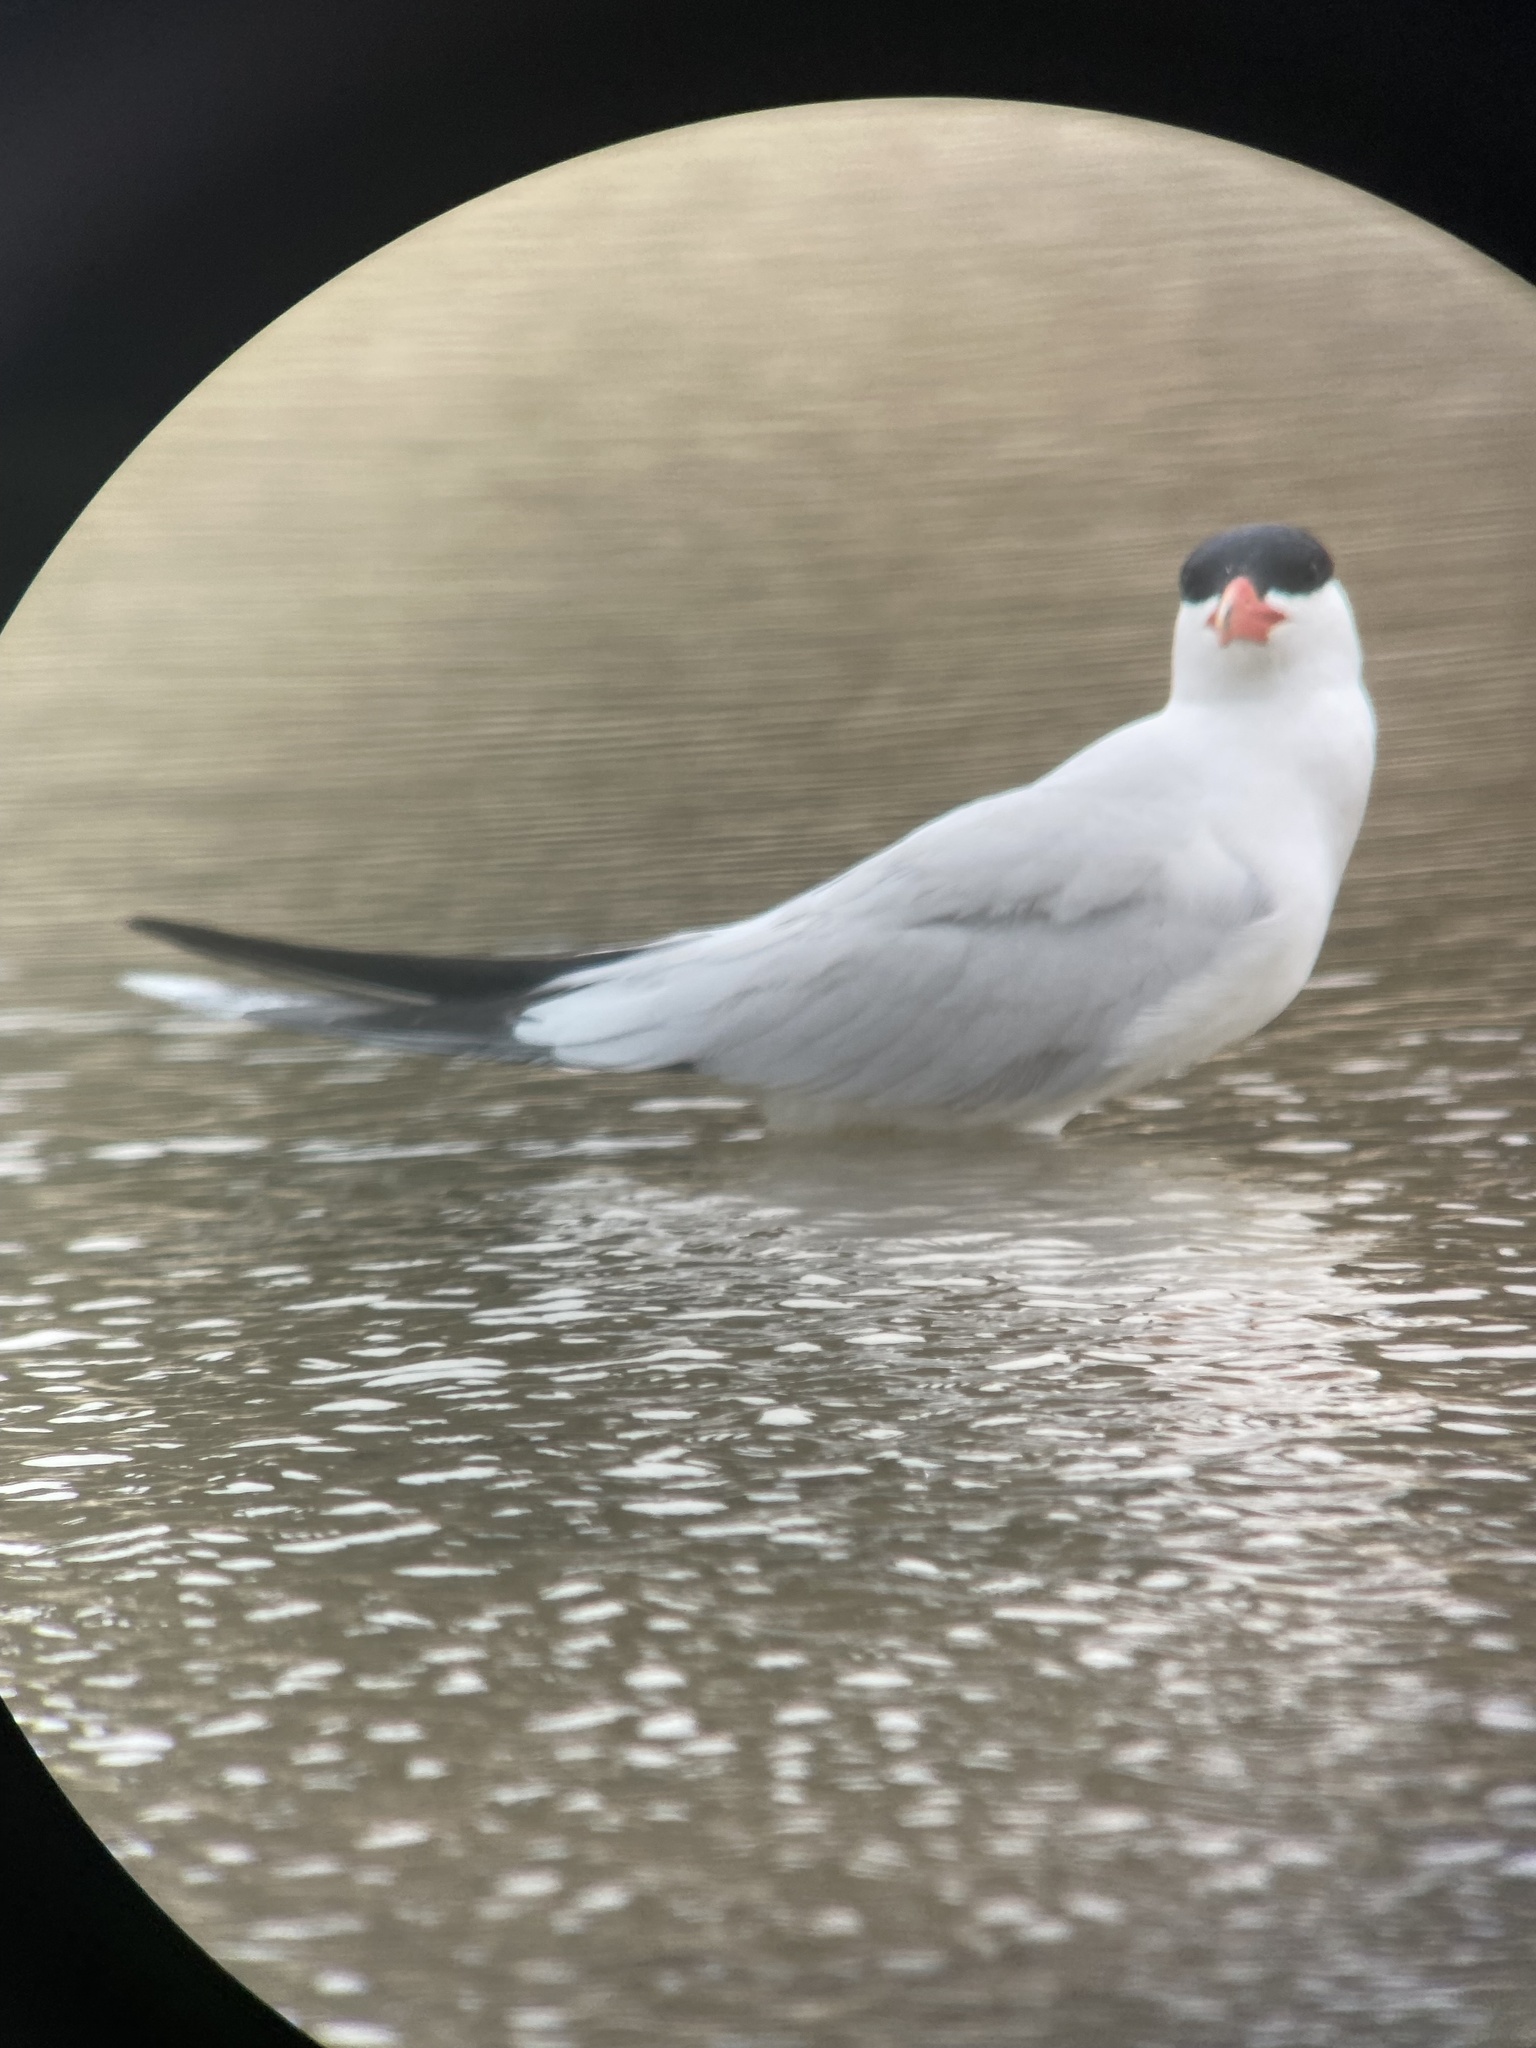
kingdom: Animalia
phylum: Chordata
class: Aves
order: Charadriiformes
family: Laridae
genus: Hydroprogne
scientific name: Hydroprogne caspia
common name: Caspian tern
